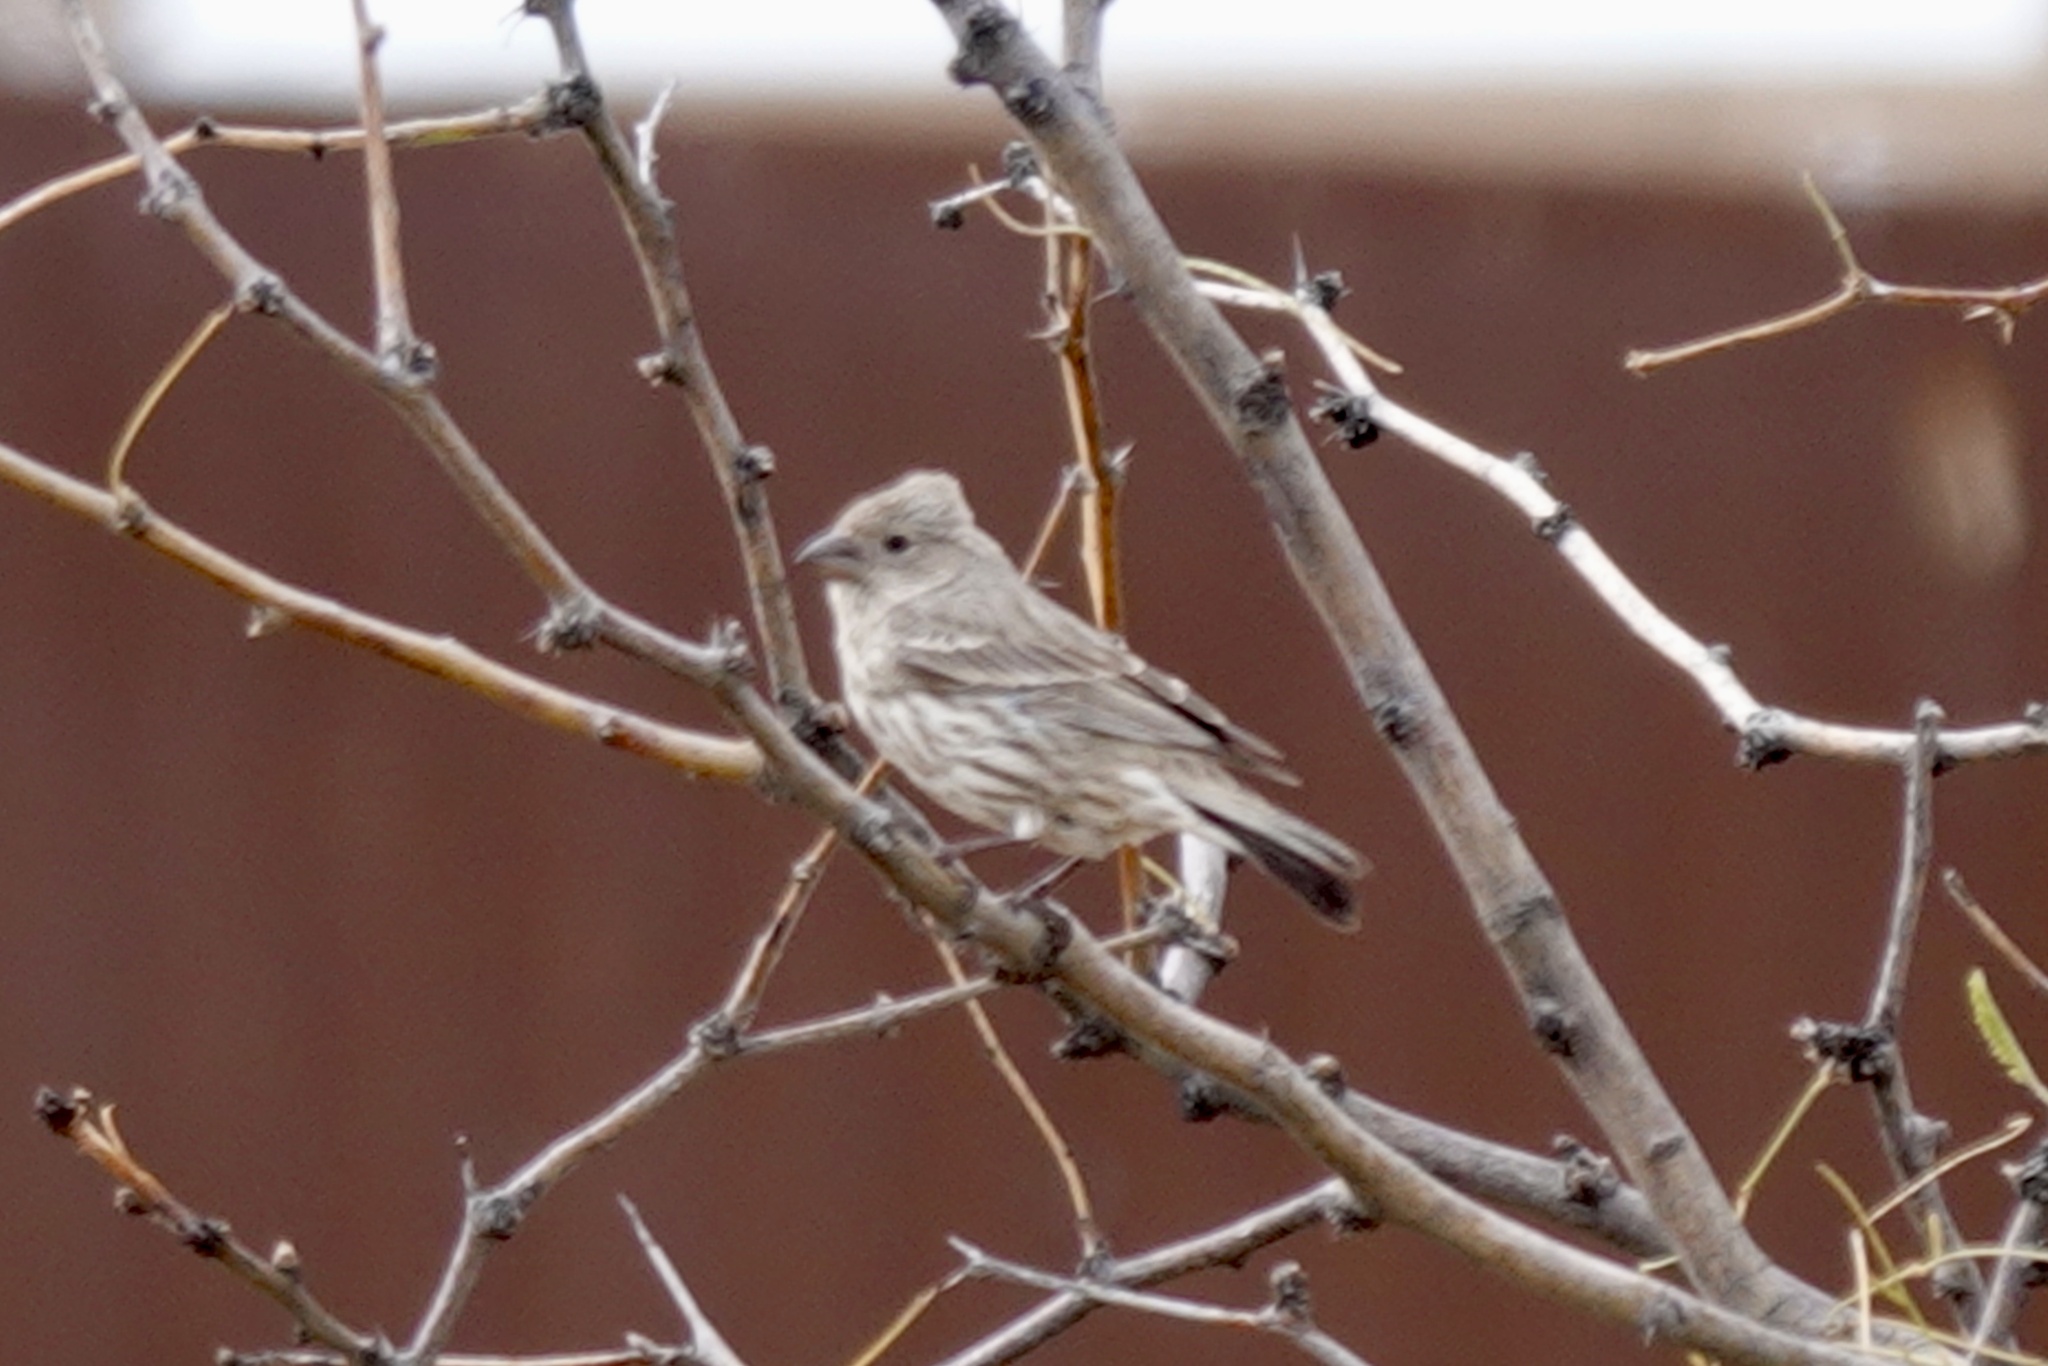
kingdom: Animalia
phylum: Chordata
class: Aves
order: Passeriformes
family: Fringillidae
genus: Haemorhous
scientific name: Haemorhous mexicanus
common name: House finch
